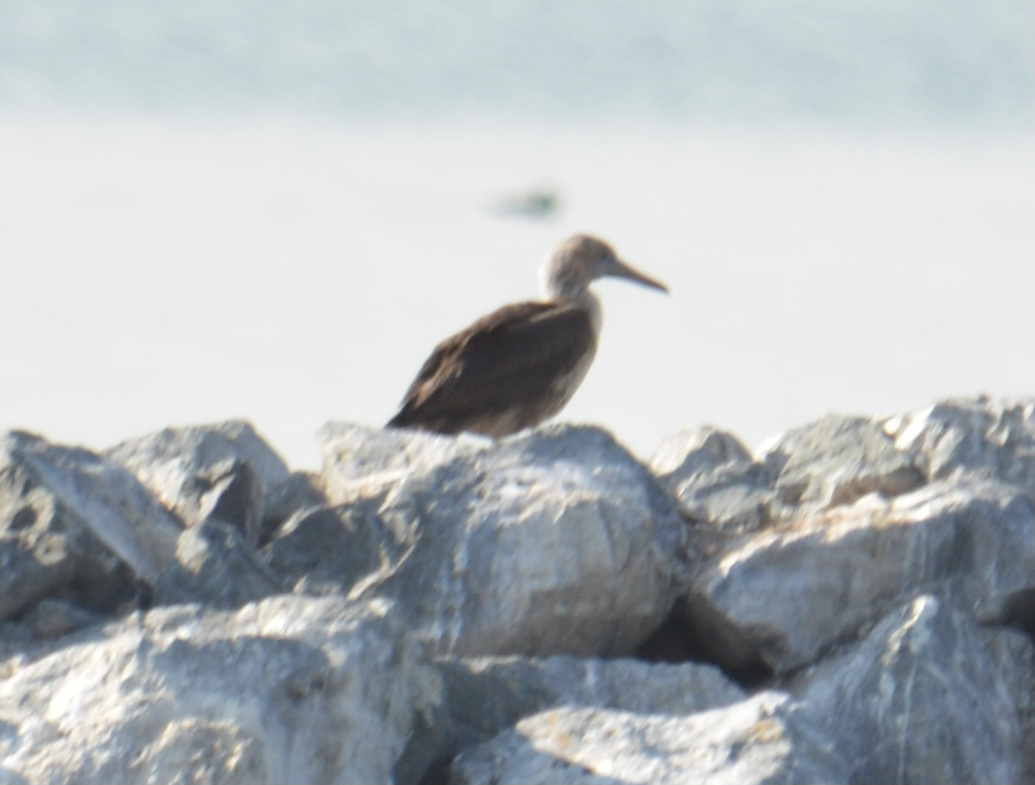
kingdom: Animalia
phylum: Chordata
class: Aves
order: Suliformes
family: Sulidae
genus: Sula
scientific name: Sula sula
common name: Red-footed booby
